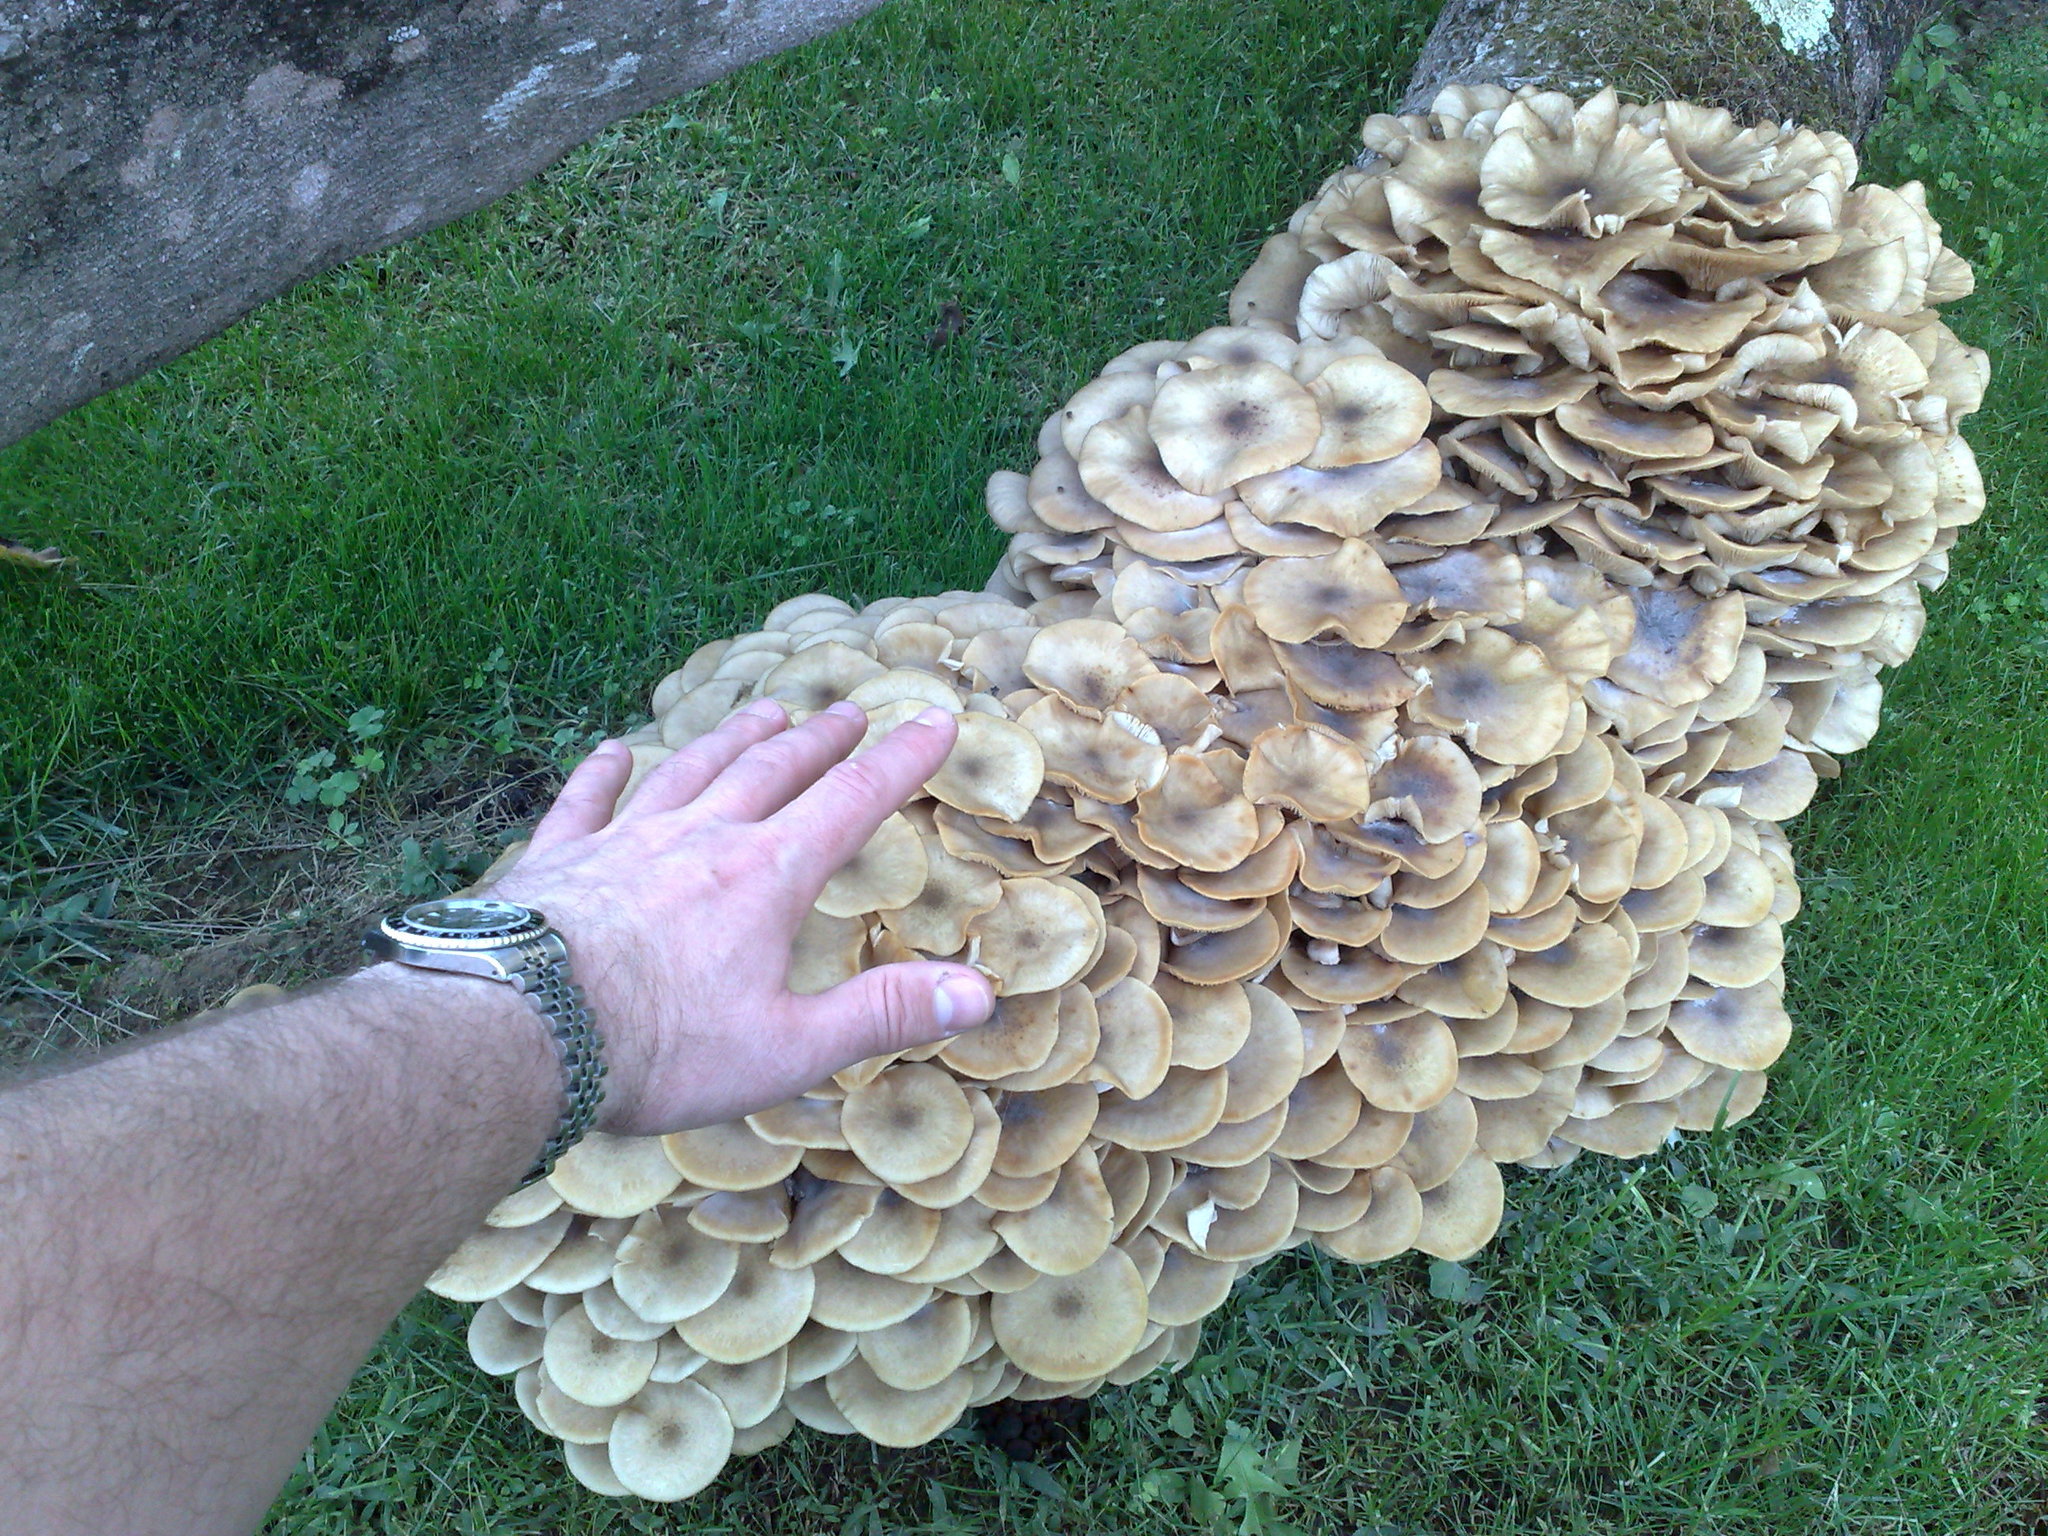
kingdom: Fungi
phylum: Basidiomycota
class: Agaricomycetes
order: Agaricales
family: Physalacriaceae
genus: Armillaria
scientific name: Armillaria mellea
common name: Honey fungus
